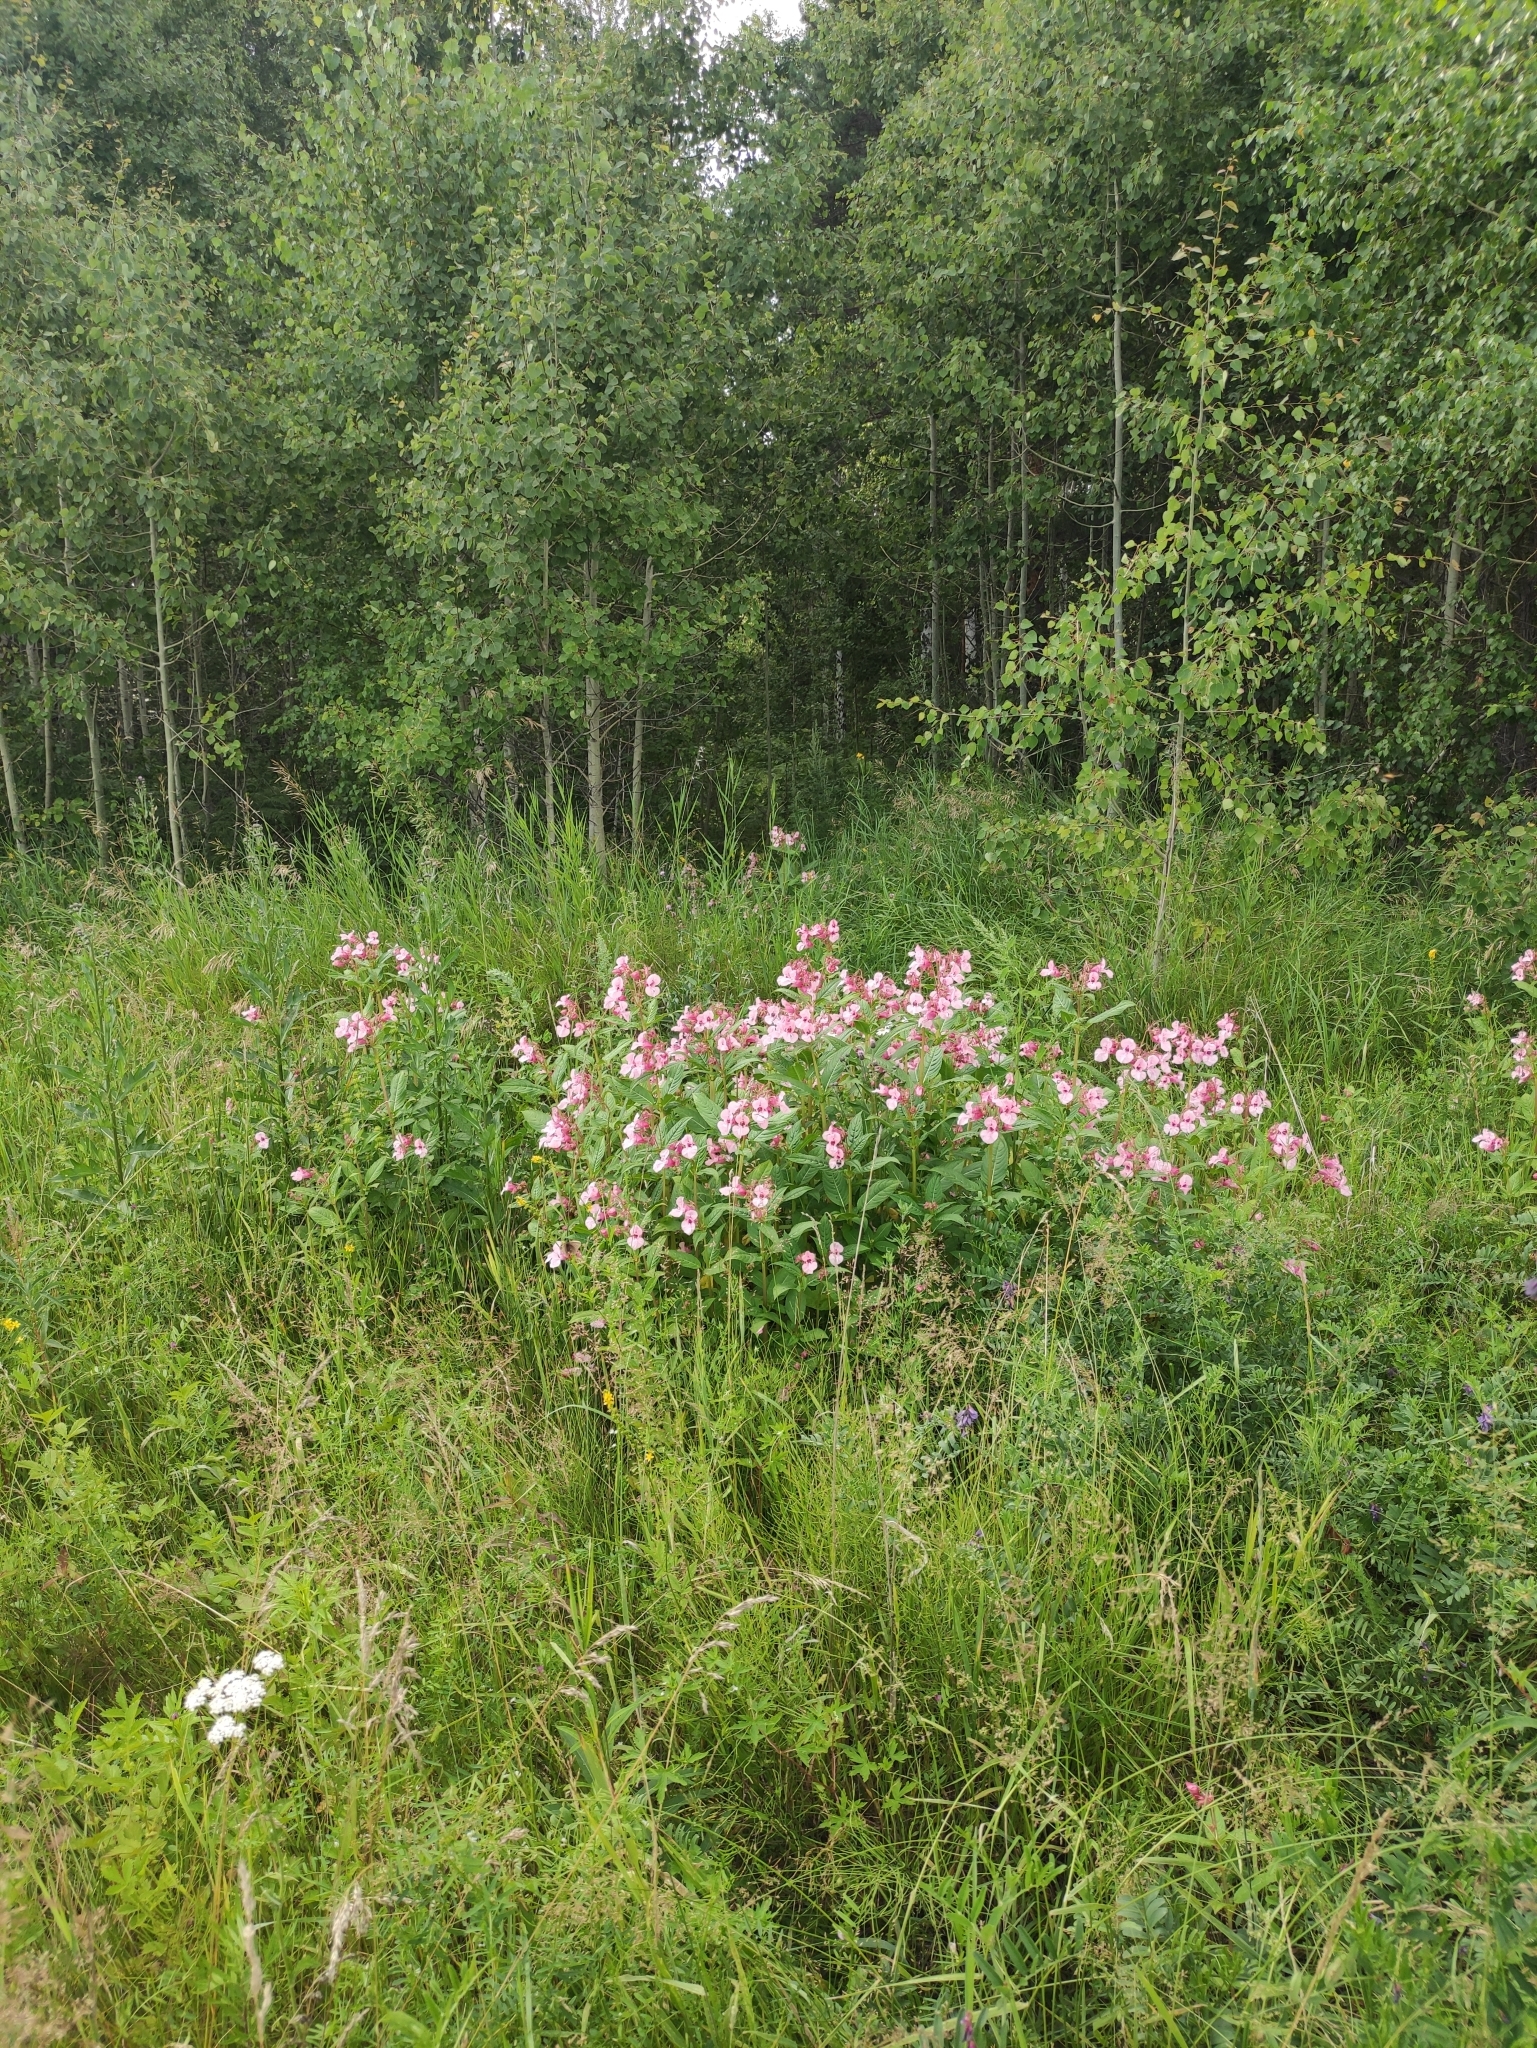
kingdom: Plantae
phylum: Tracheophyta
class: Magnoliopsida
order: Ericales
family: Balsaminaceae
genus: Impatiens
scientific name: Impatiens glandulifera
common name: Himalayan balsam
